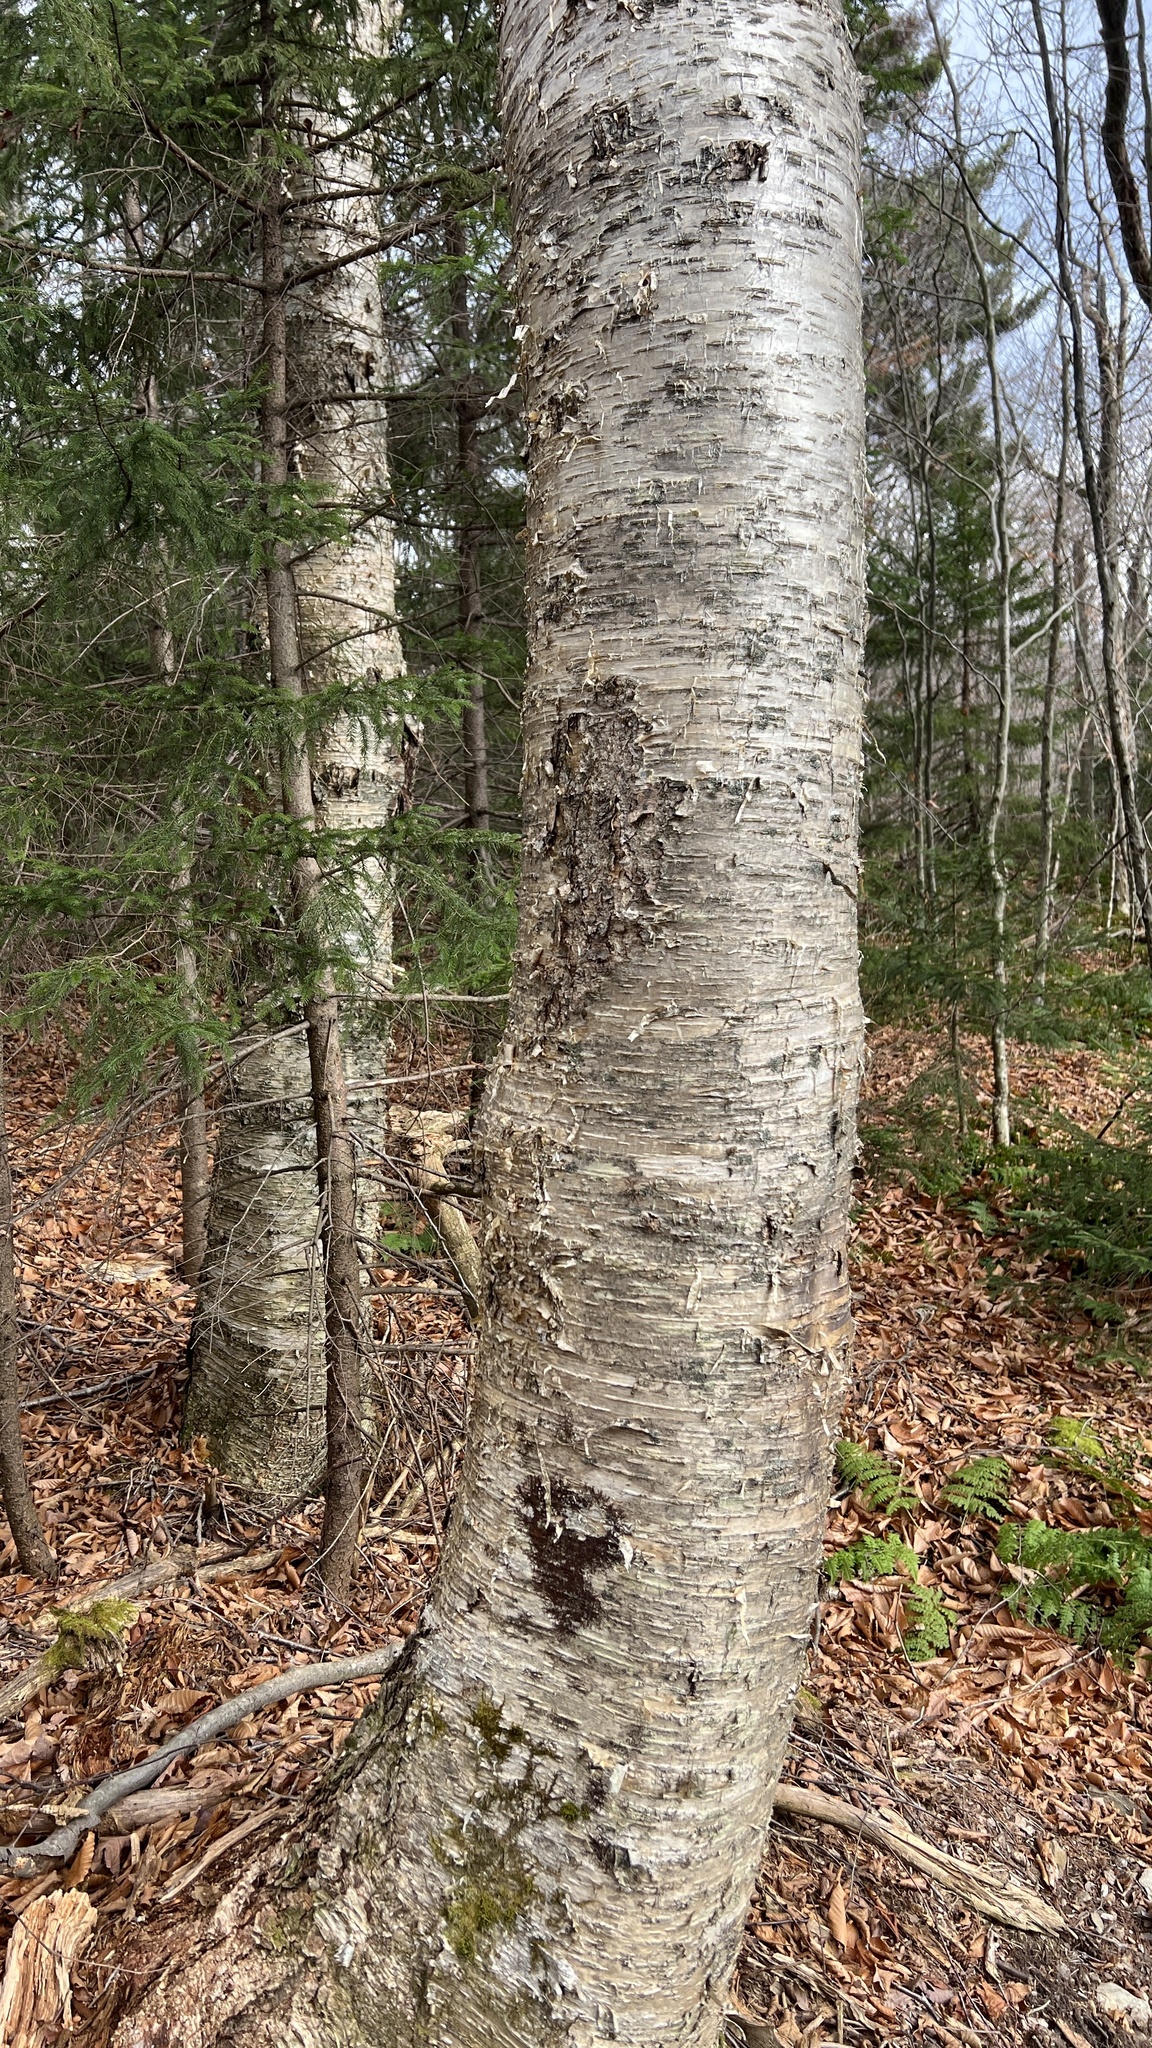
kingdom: Plantae
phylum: Tracheophyta
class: Magnoliopsida
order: Fagales
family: Betulaceae
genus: Betula
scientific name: Betula alleghaniensis
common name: Yellow birch
